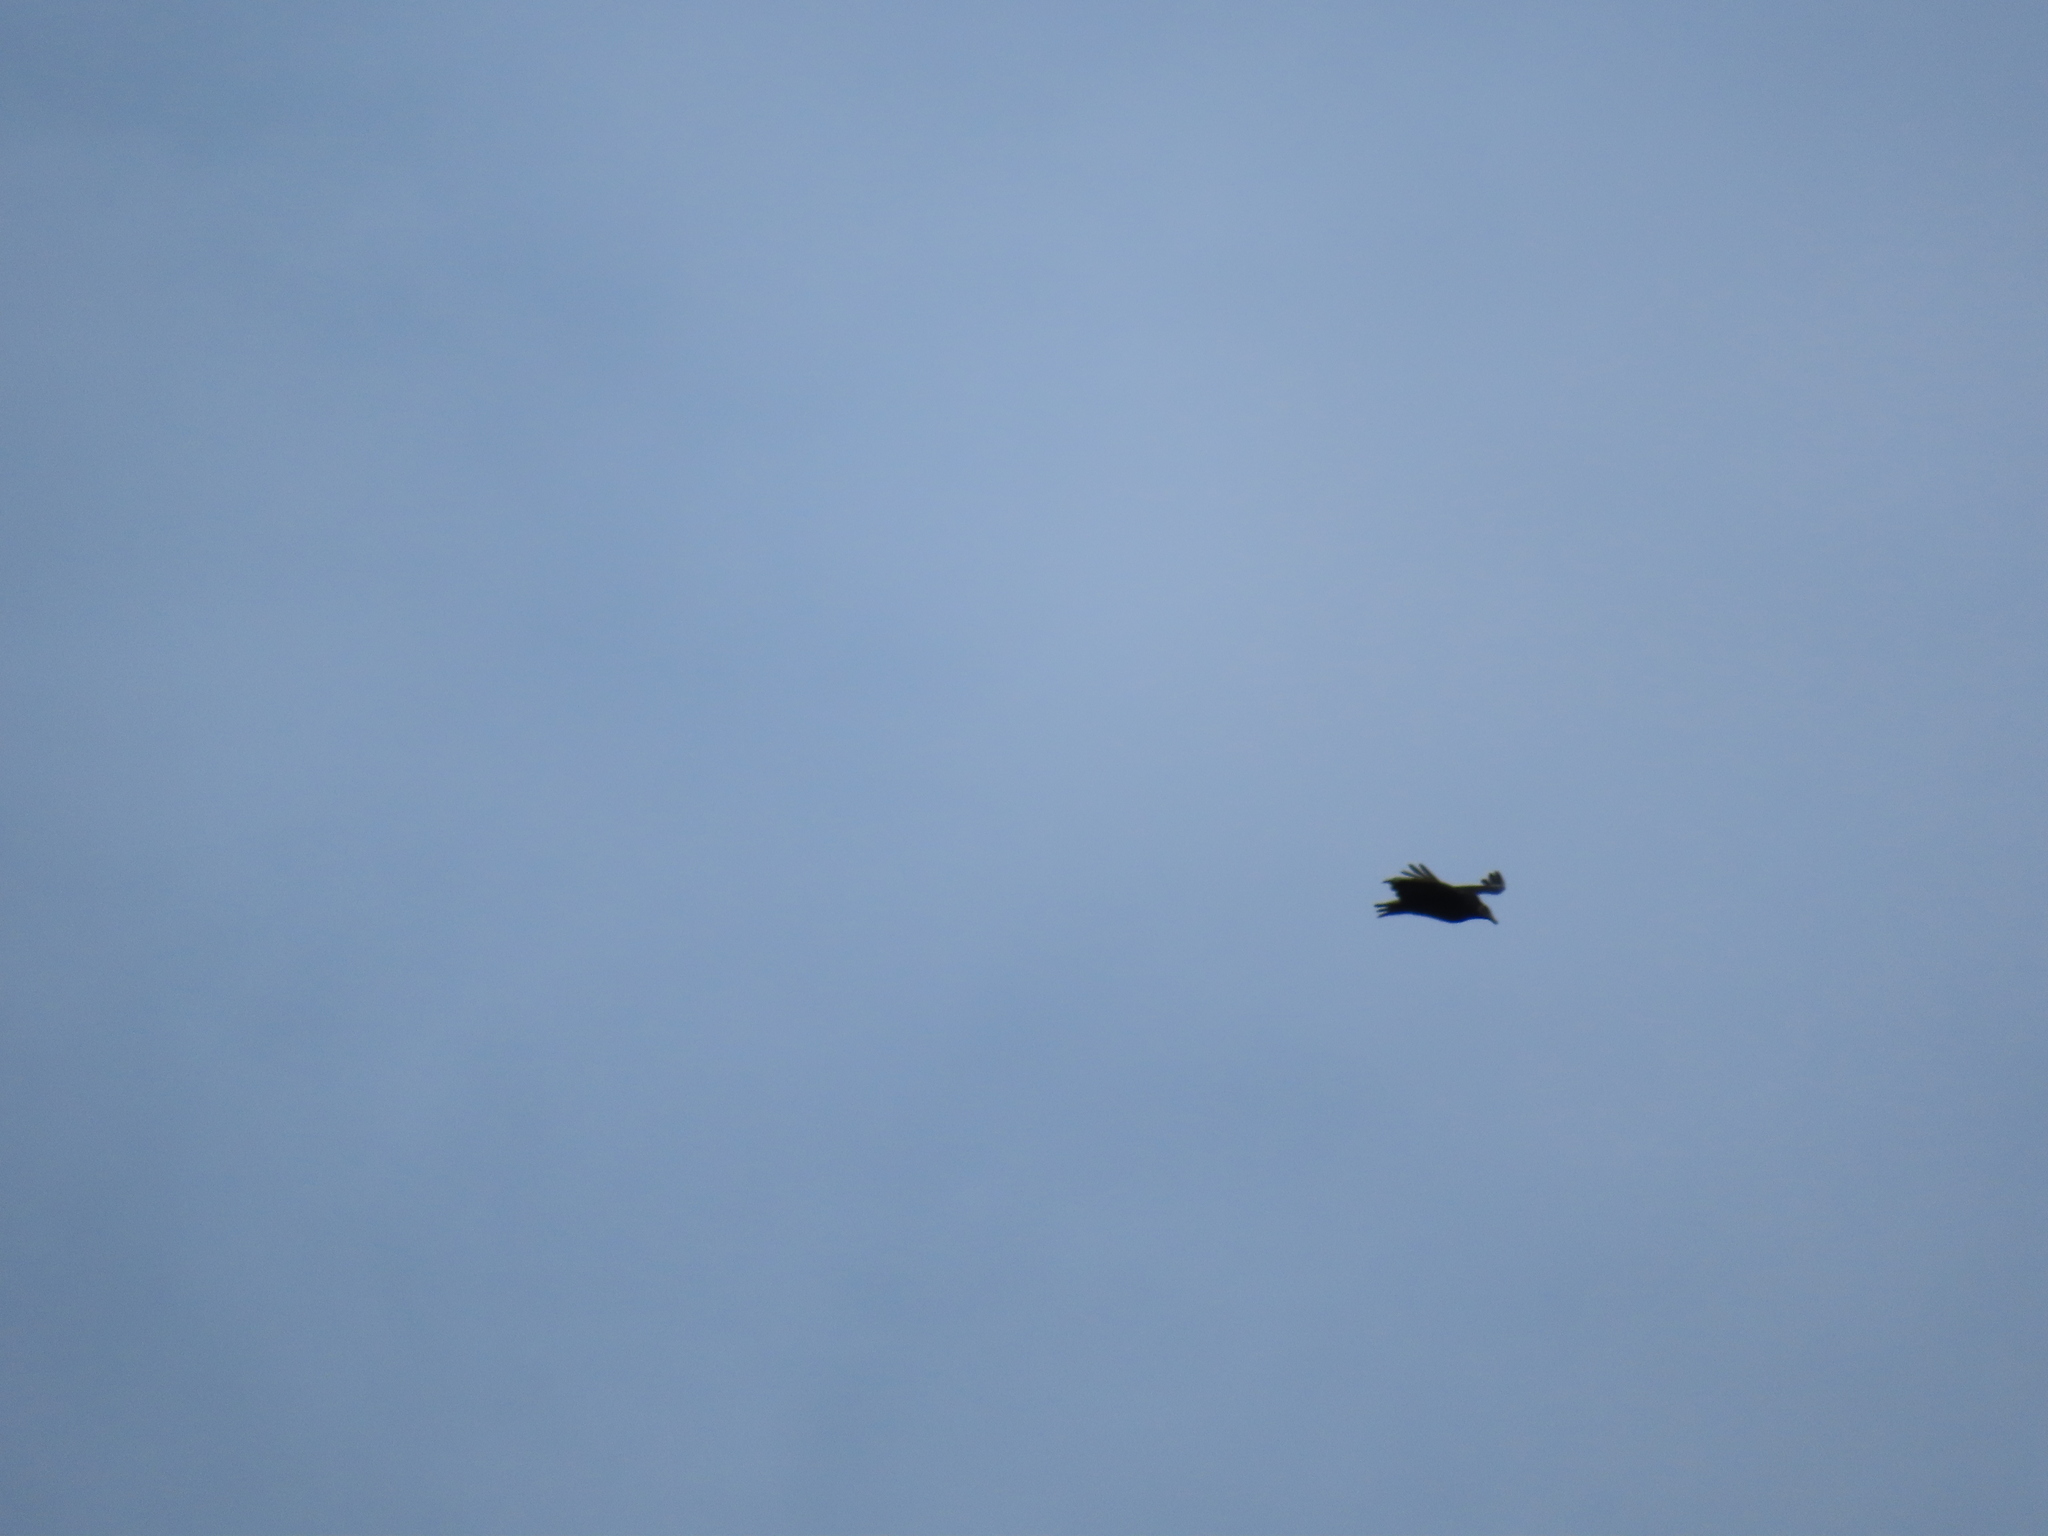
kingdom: Animalia
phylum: Chordata
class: Aves
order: Accipitriformes
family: Cathartidae
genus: Coragyps
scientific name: Coragyps atratus
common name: Black vulture
